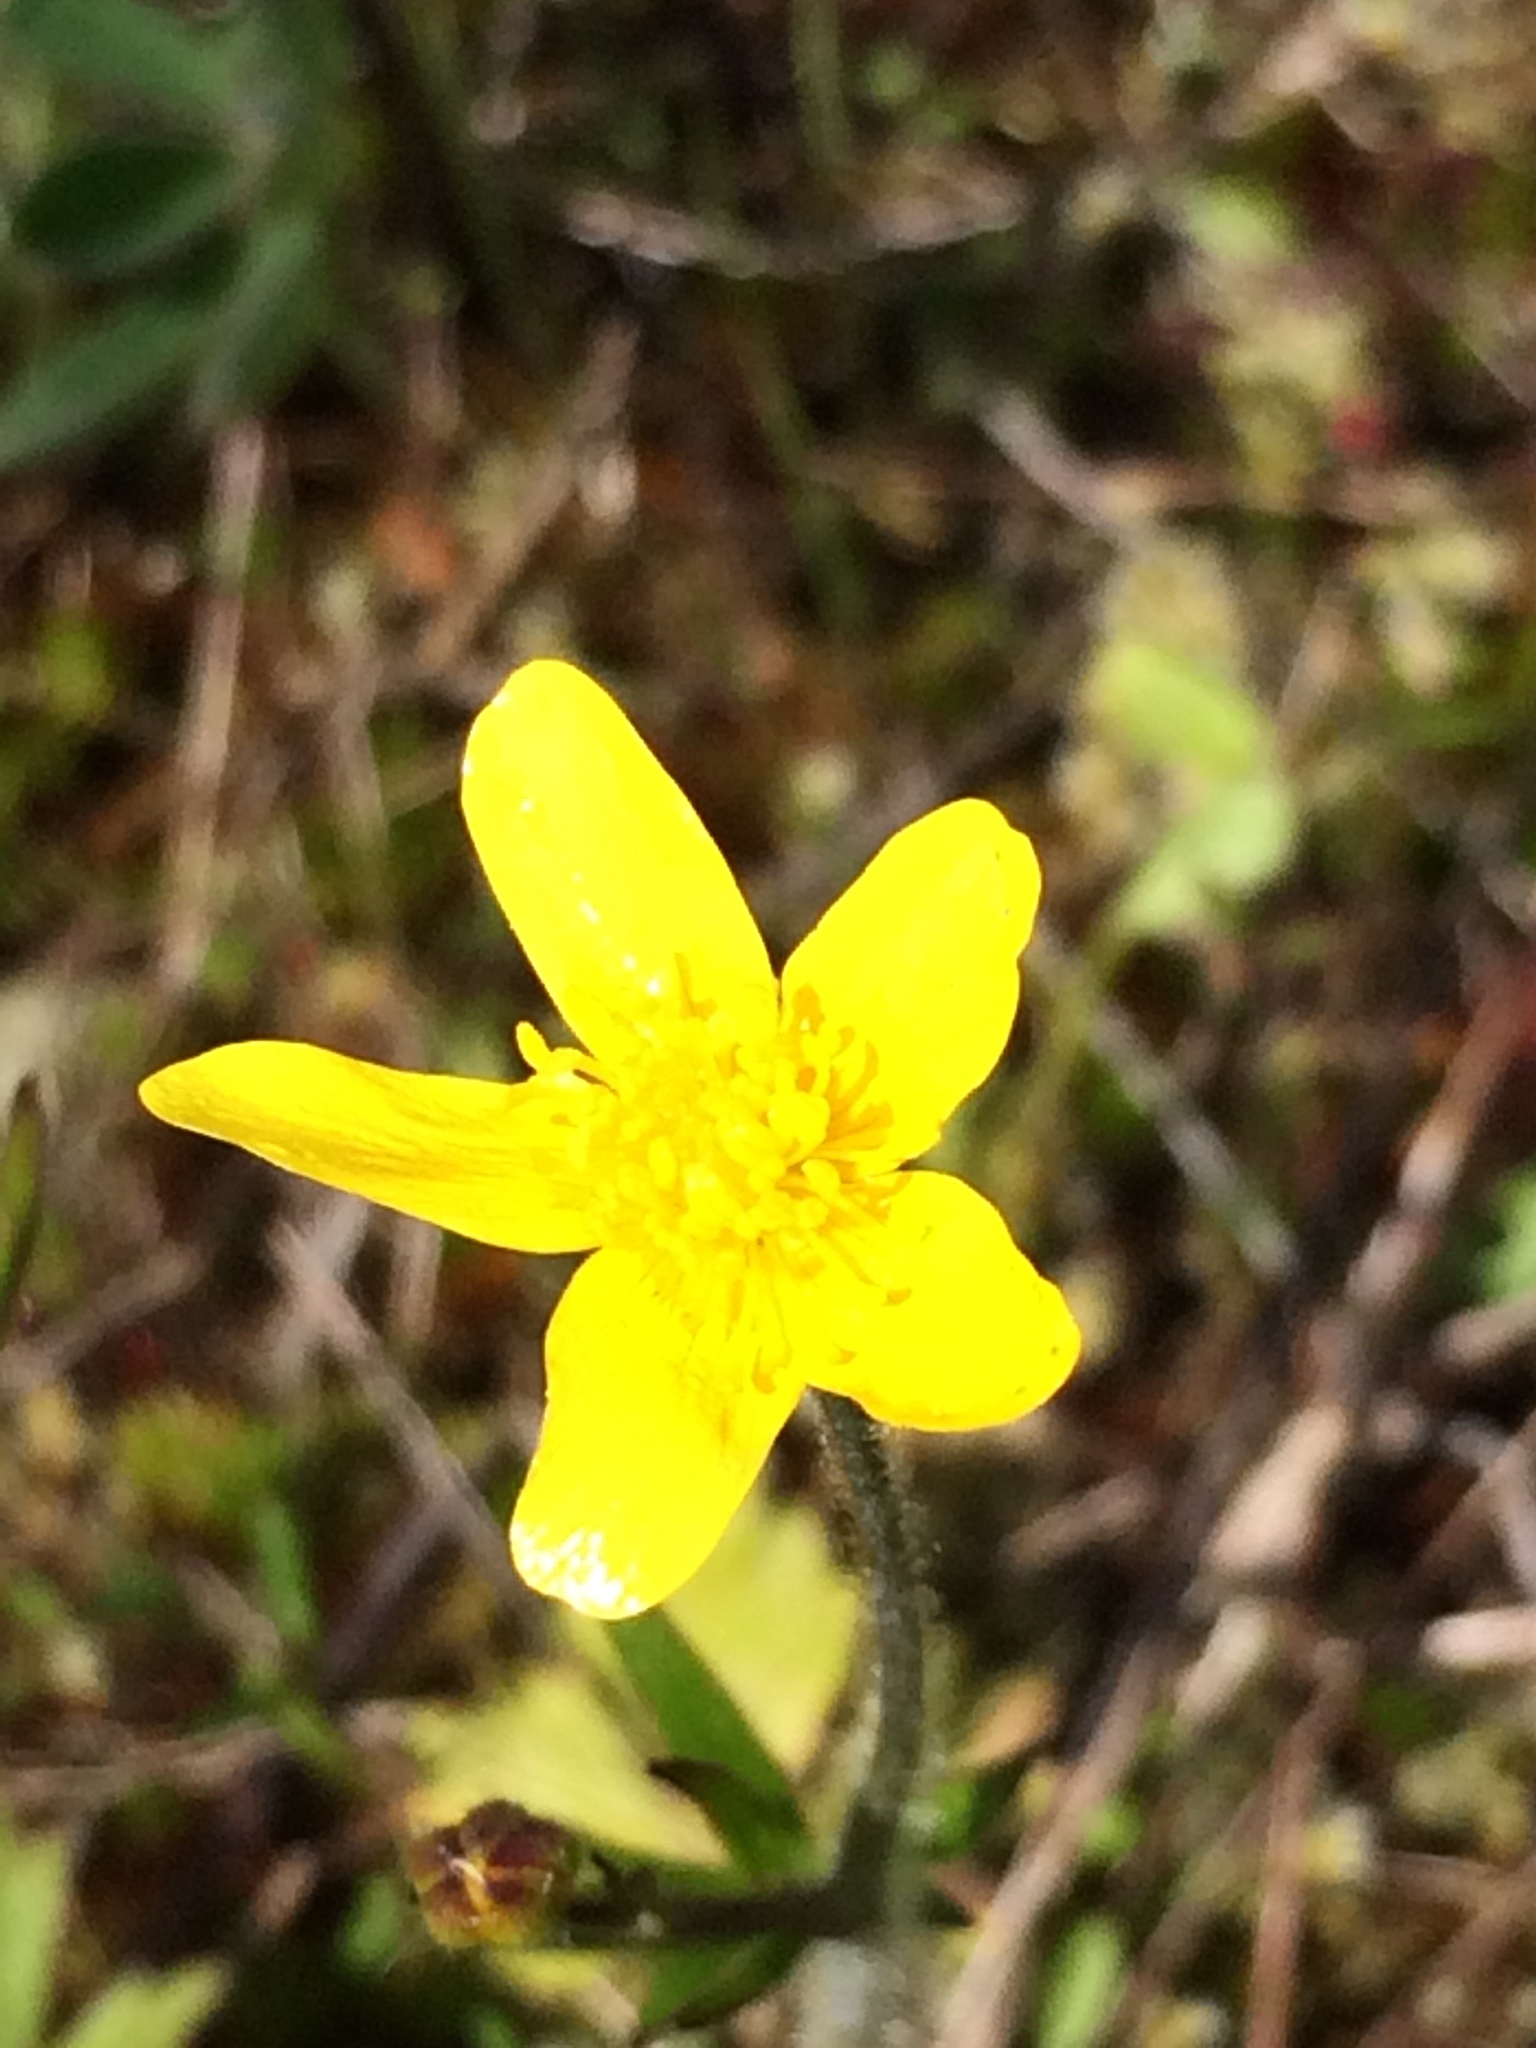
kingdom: Plantae
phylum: Tracheophyta
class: Magnoliopsida
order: Ranunculales
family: Ranunculaceae
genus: Ranunculus
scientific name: Ranunculus occidentalis
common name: Western buttercup
